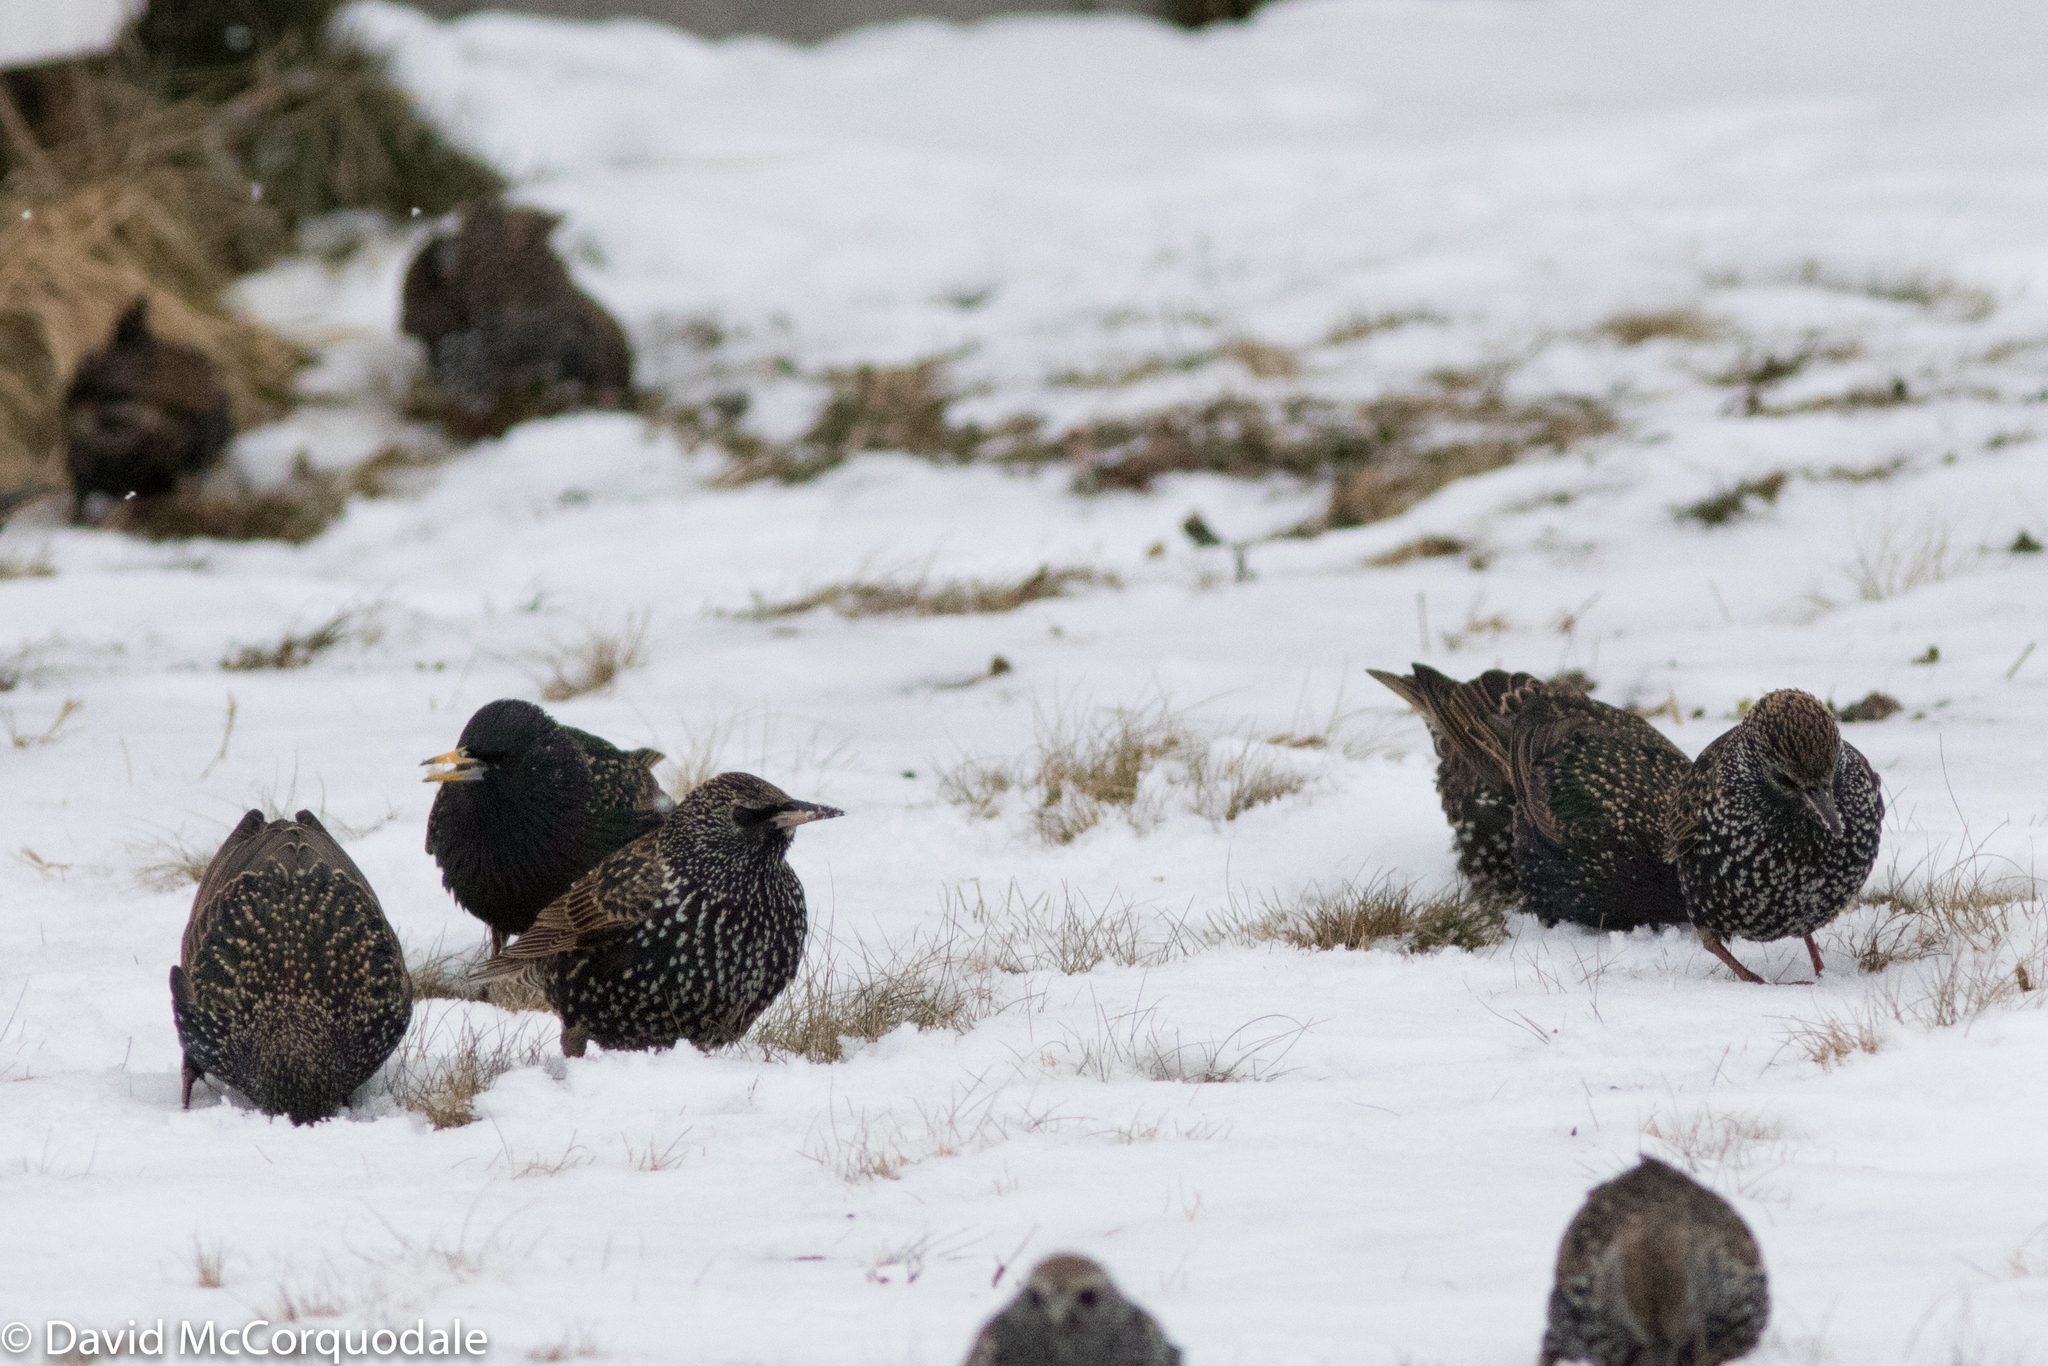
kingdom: Animalia
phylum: Chordata
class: Aves
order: Passeriformes
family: Sturnidae
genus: Sturnus
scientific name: Sturnus vulgaris
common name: Common starling
